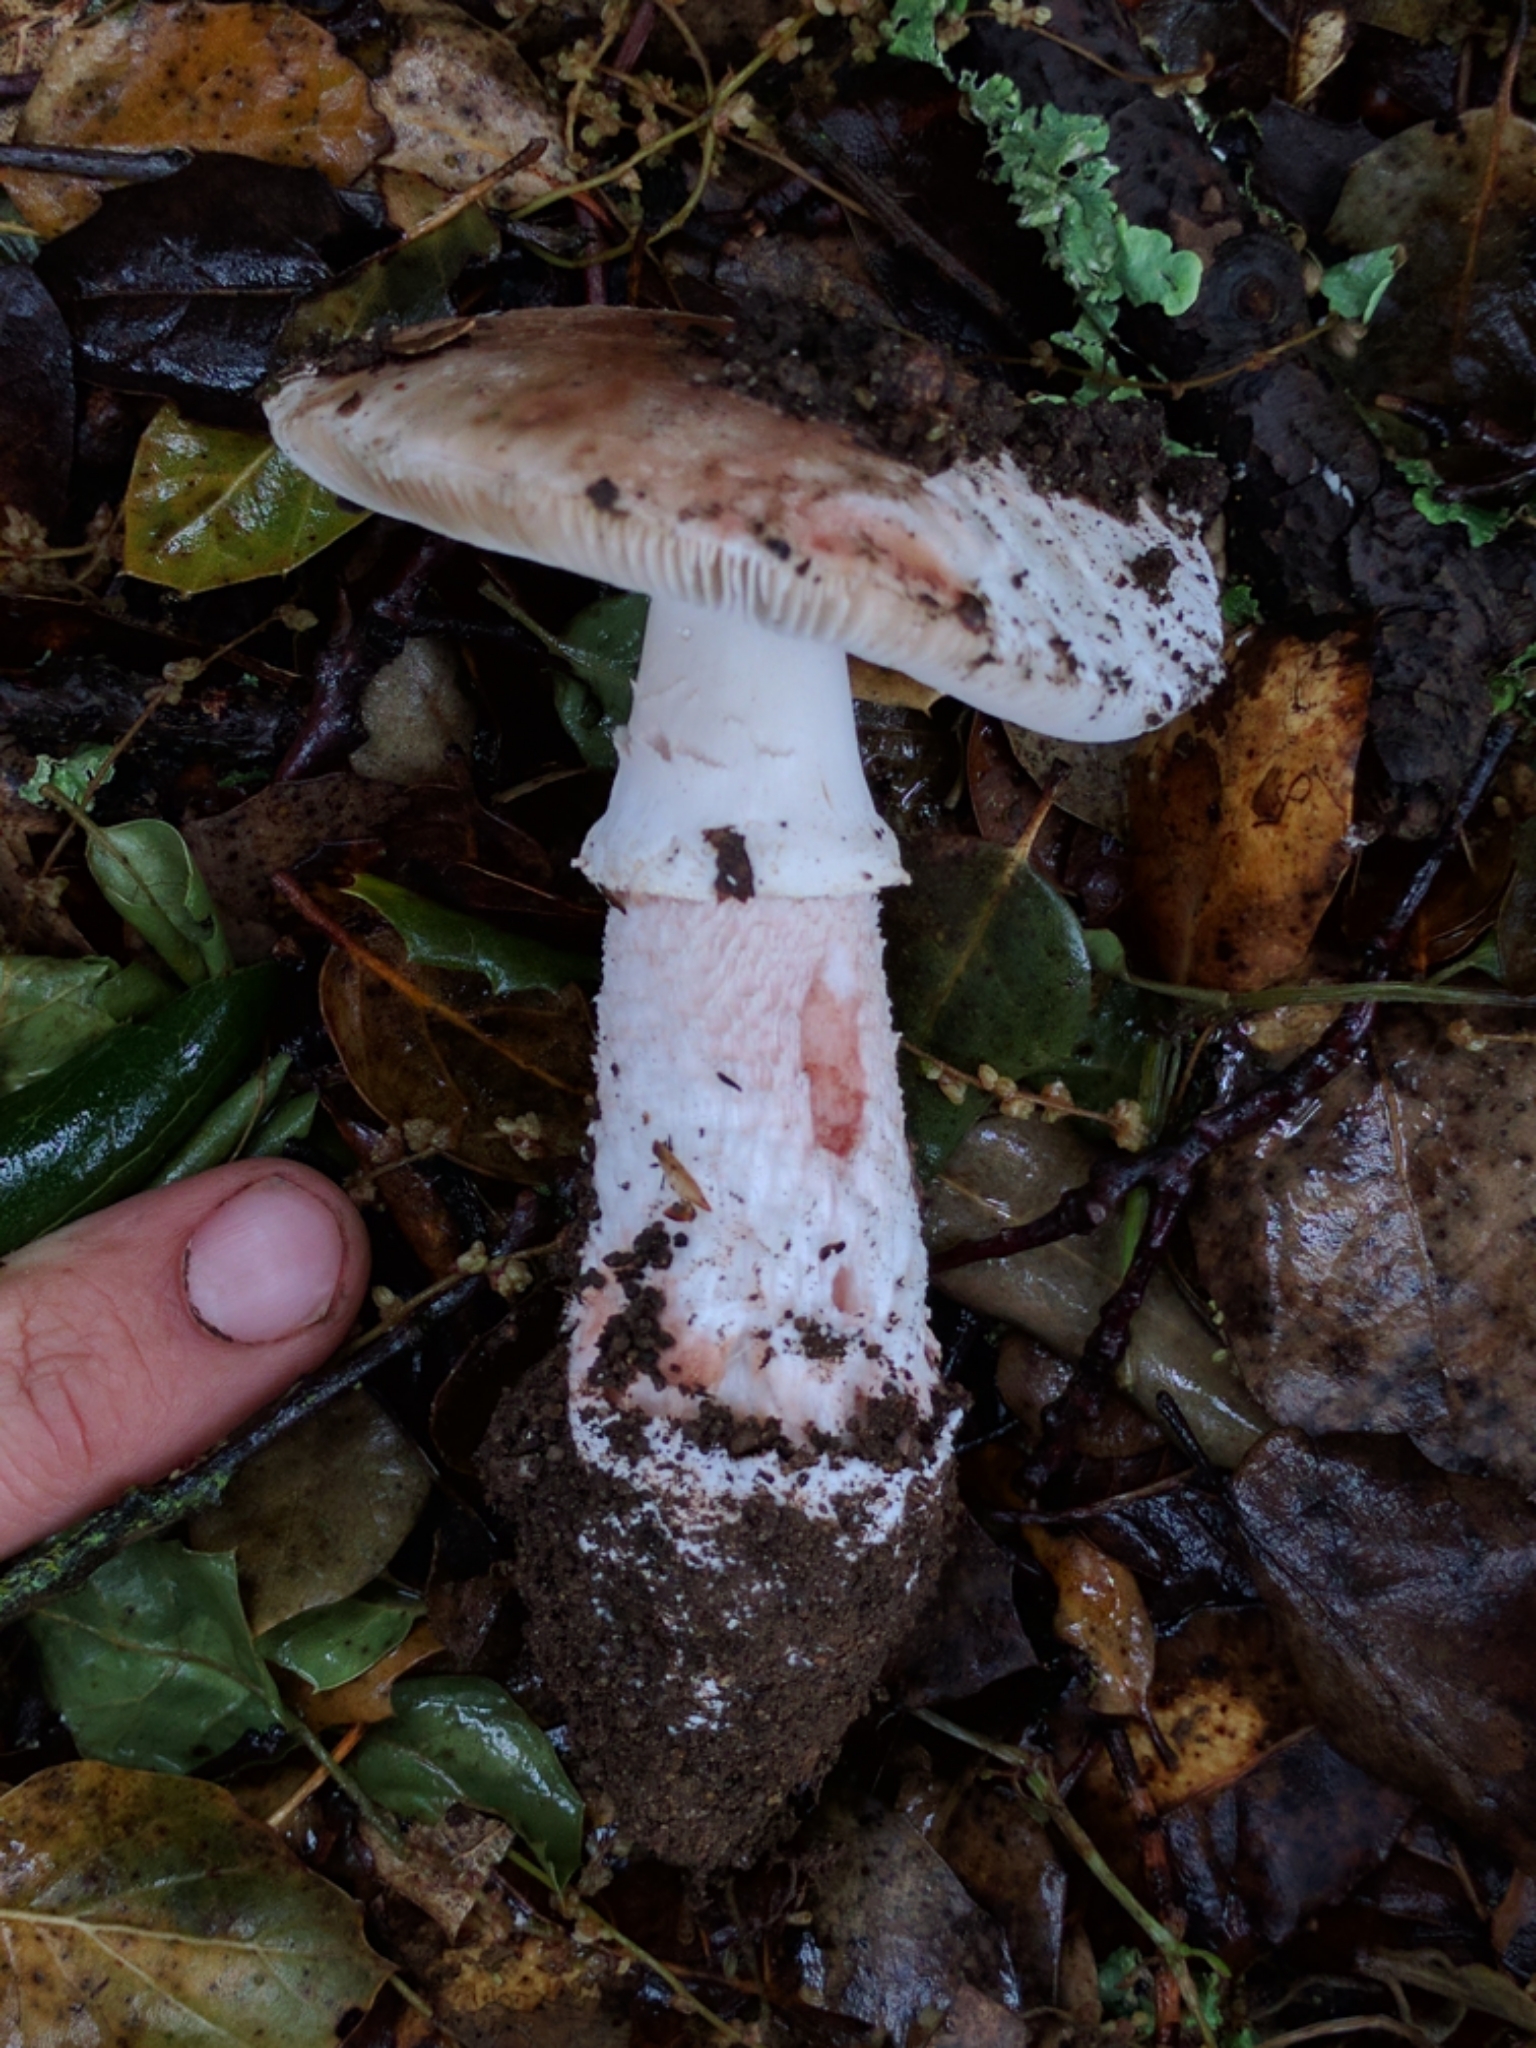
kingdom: Fungi
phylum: Basidiomycota
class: Agaricomycetes
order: Agaricales
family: Amanitaceae
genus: Amanita
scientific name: Amanita novinupta
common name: Blushing bride
